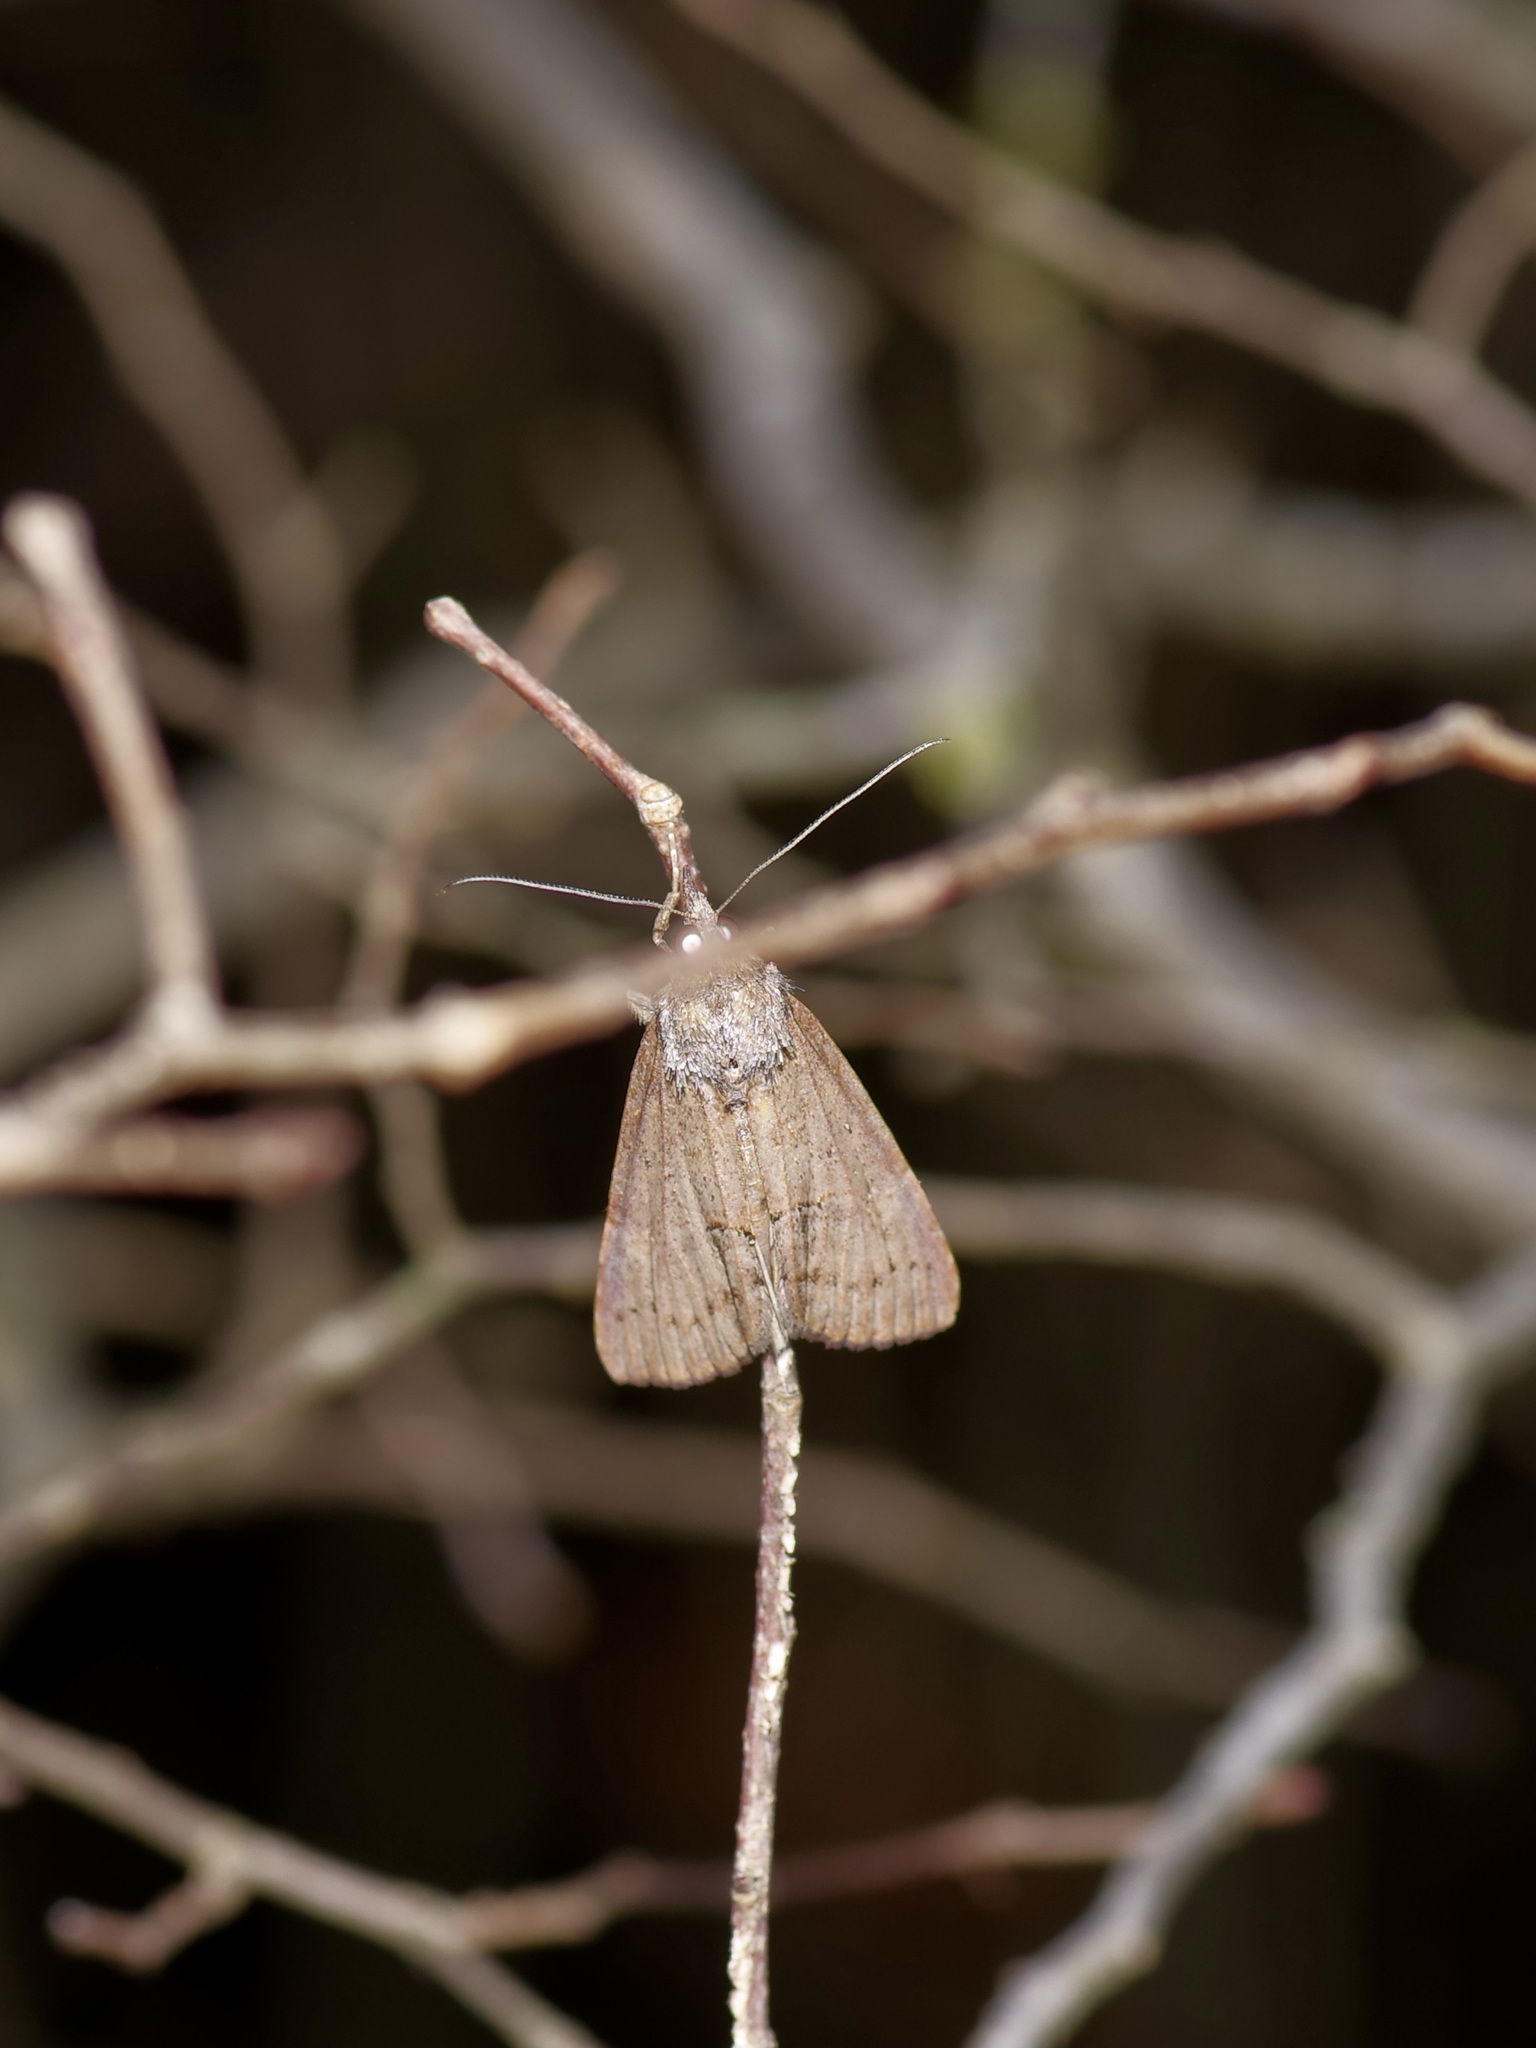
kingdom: Animalia
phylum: Arthropoda
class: Insecta
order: Lepidoptera
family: Erebidae
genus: Hypena
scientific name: Hypena scabra
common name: Green cloverworm
